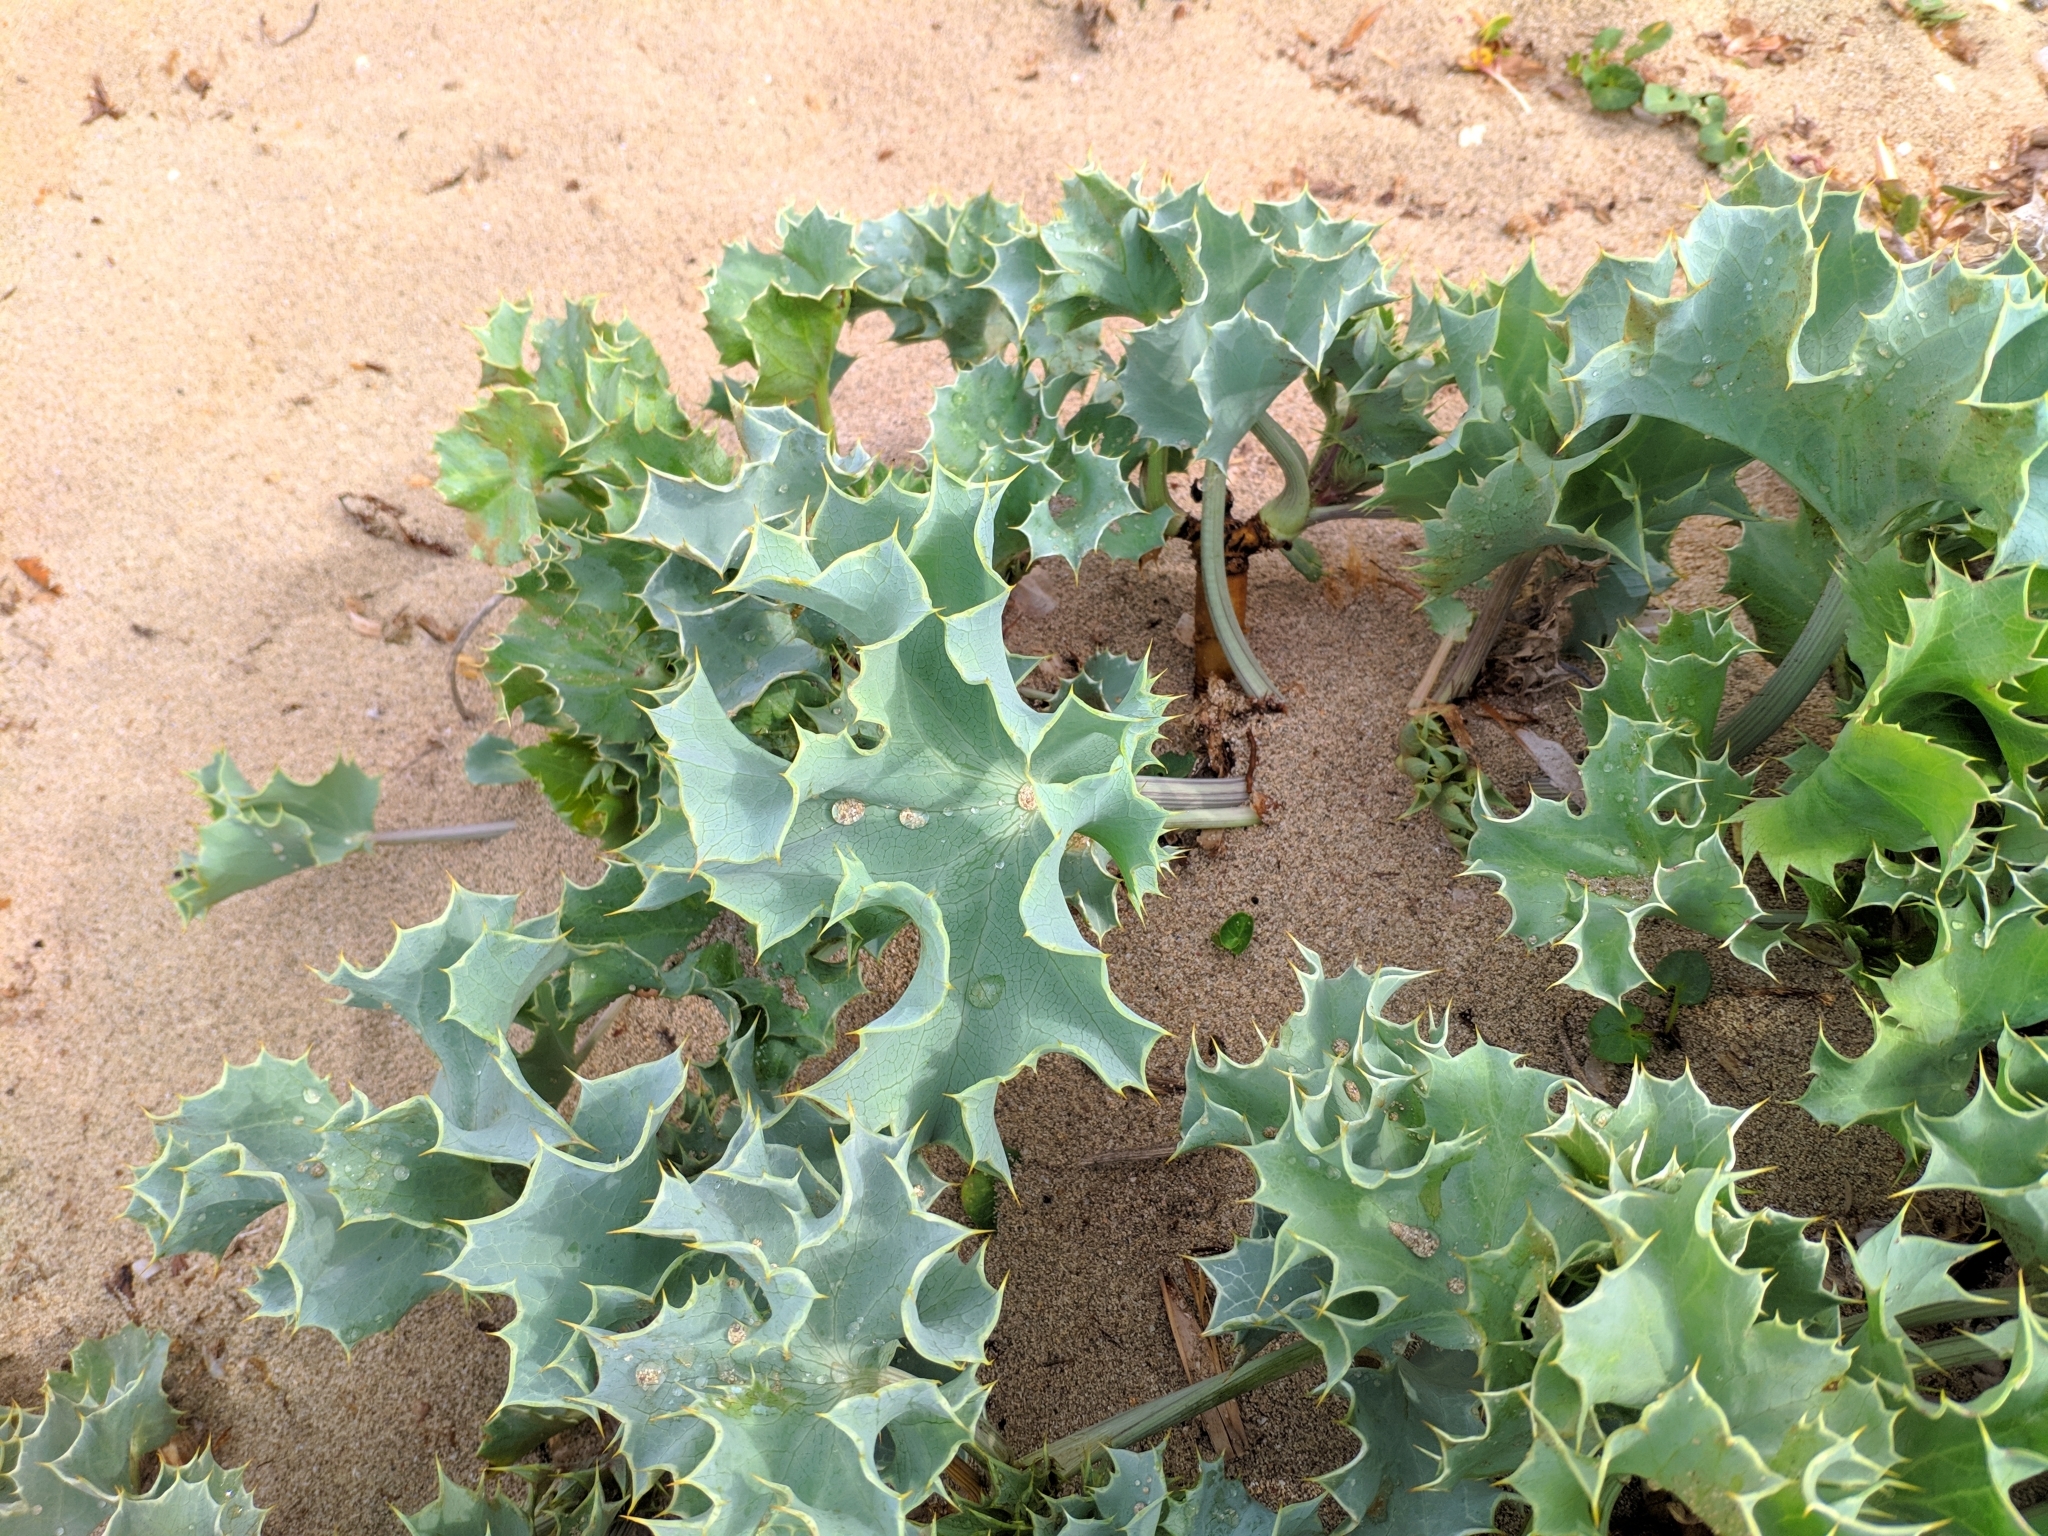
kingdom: Plantae
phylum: Tracheophyta
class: Magnoliopsida
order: Apiales
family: Apiaceae
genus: Eryngium
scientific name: Eryngium maritimum
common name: Sea-holly
